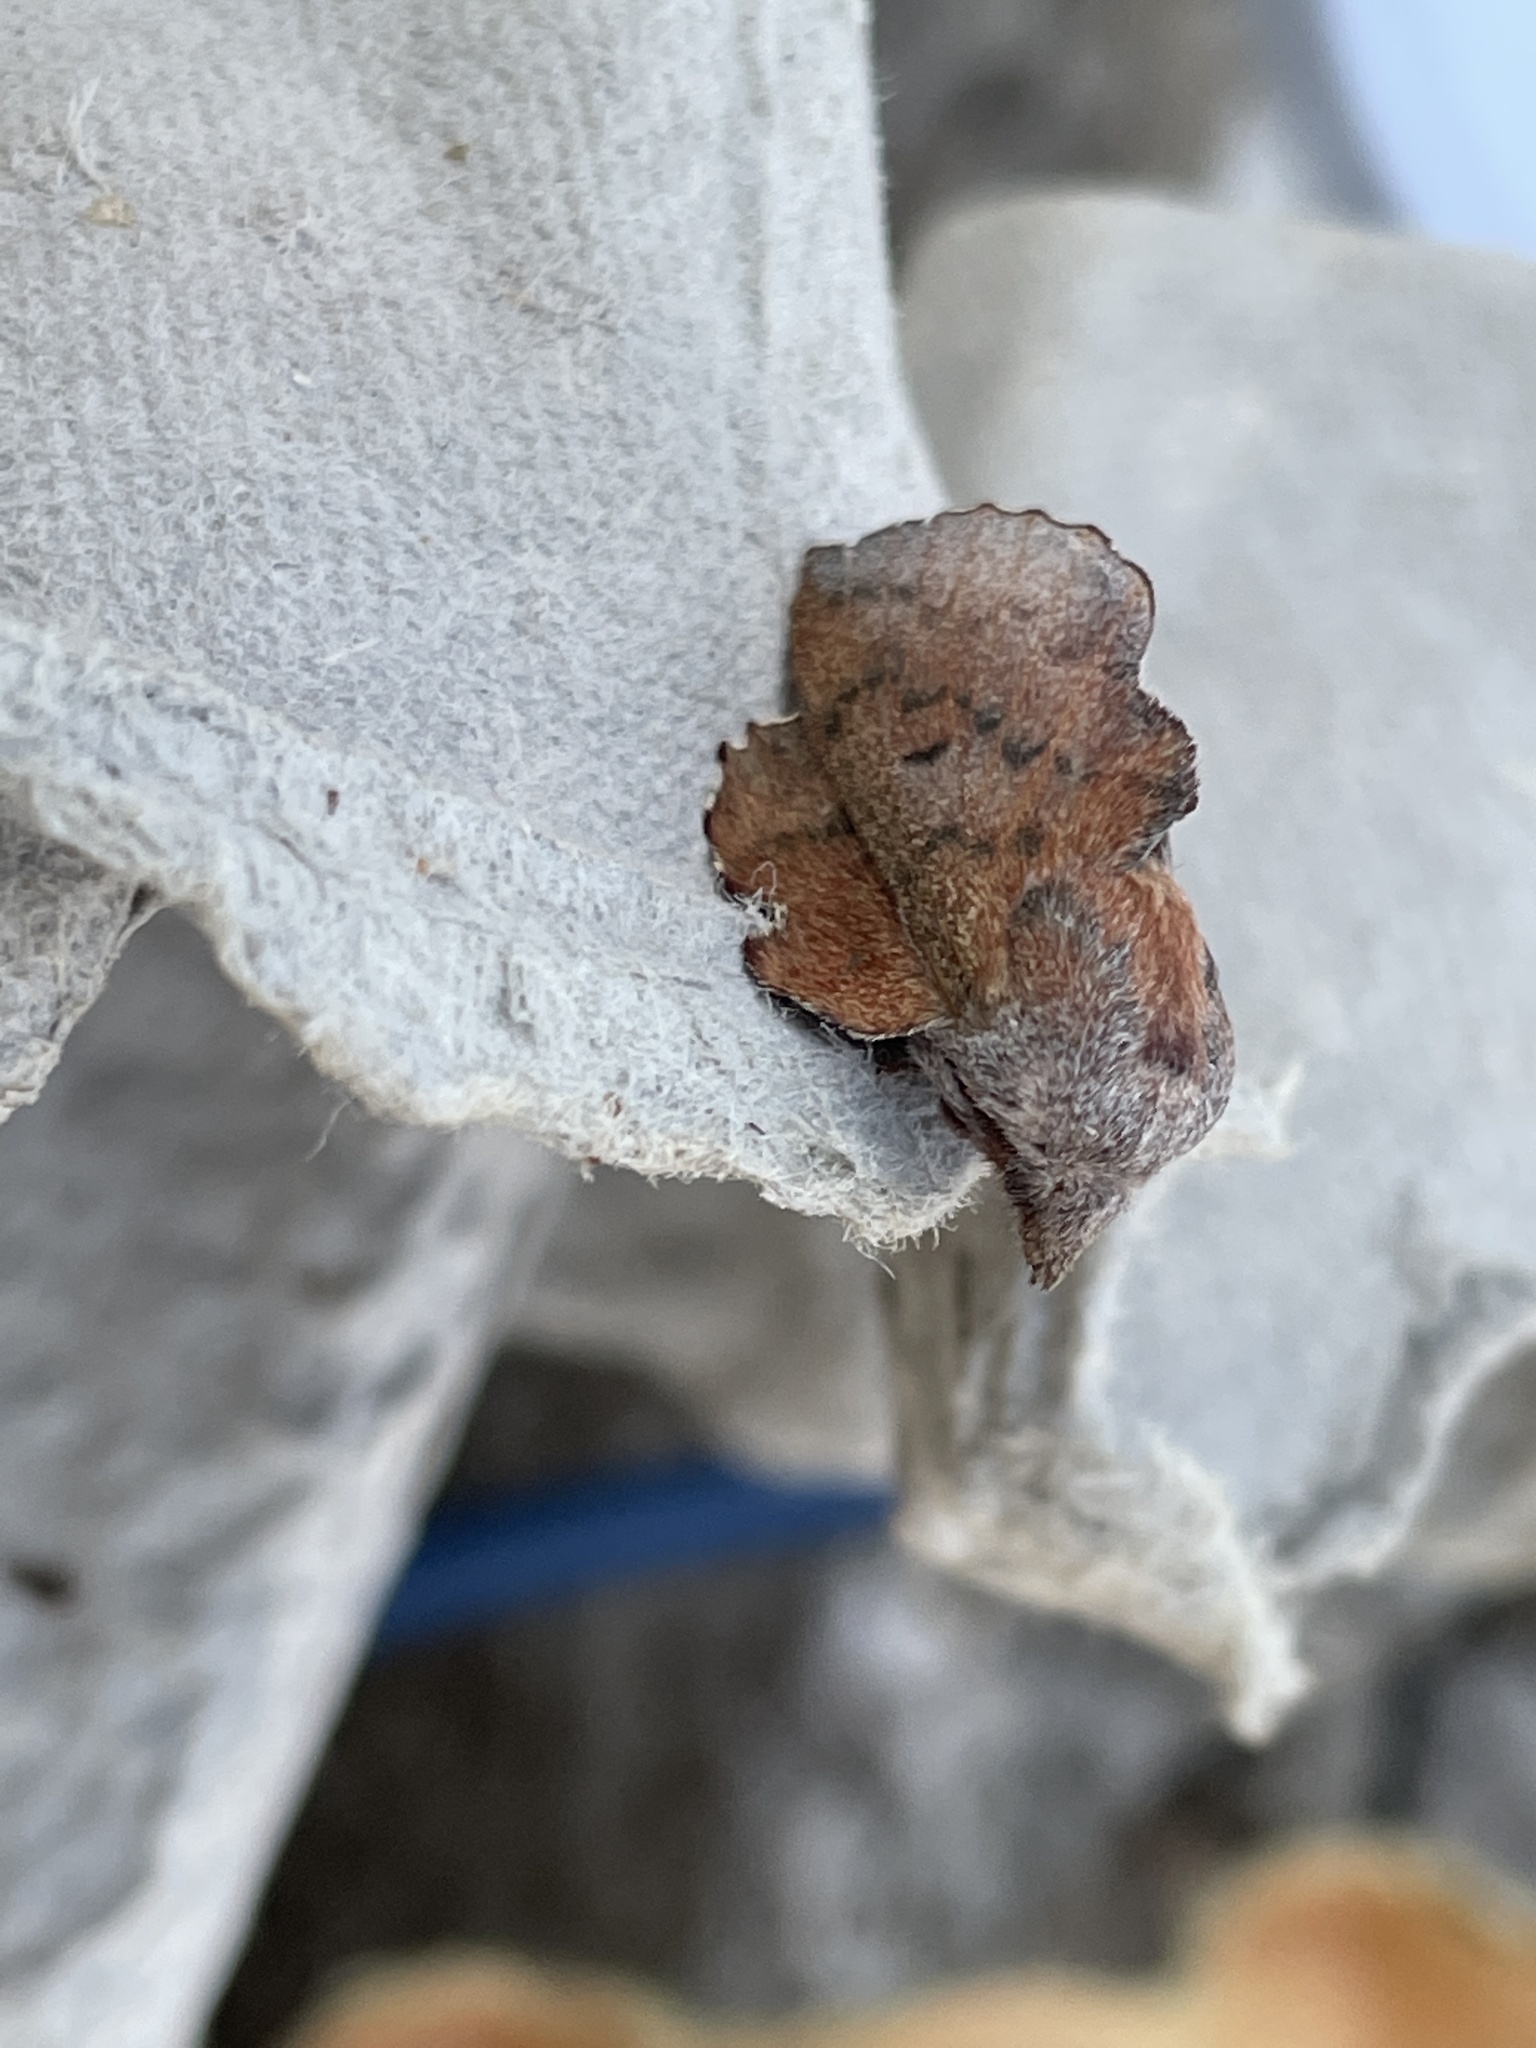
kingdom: Animalia
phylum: Arthropoda
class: Insecta
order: Lepidoptera
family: Lasiocampidae
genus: Phyllodesma
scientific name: Phyllodesma tremulifolia
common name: Aspen lappet
